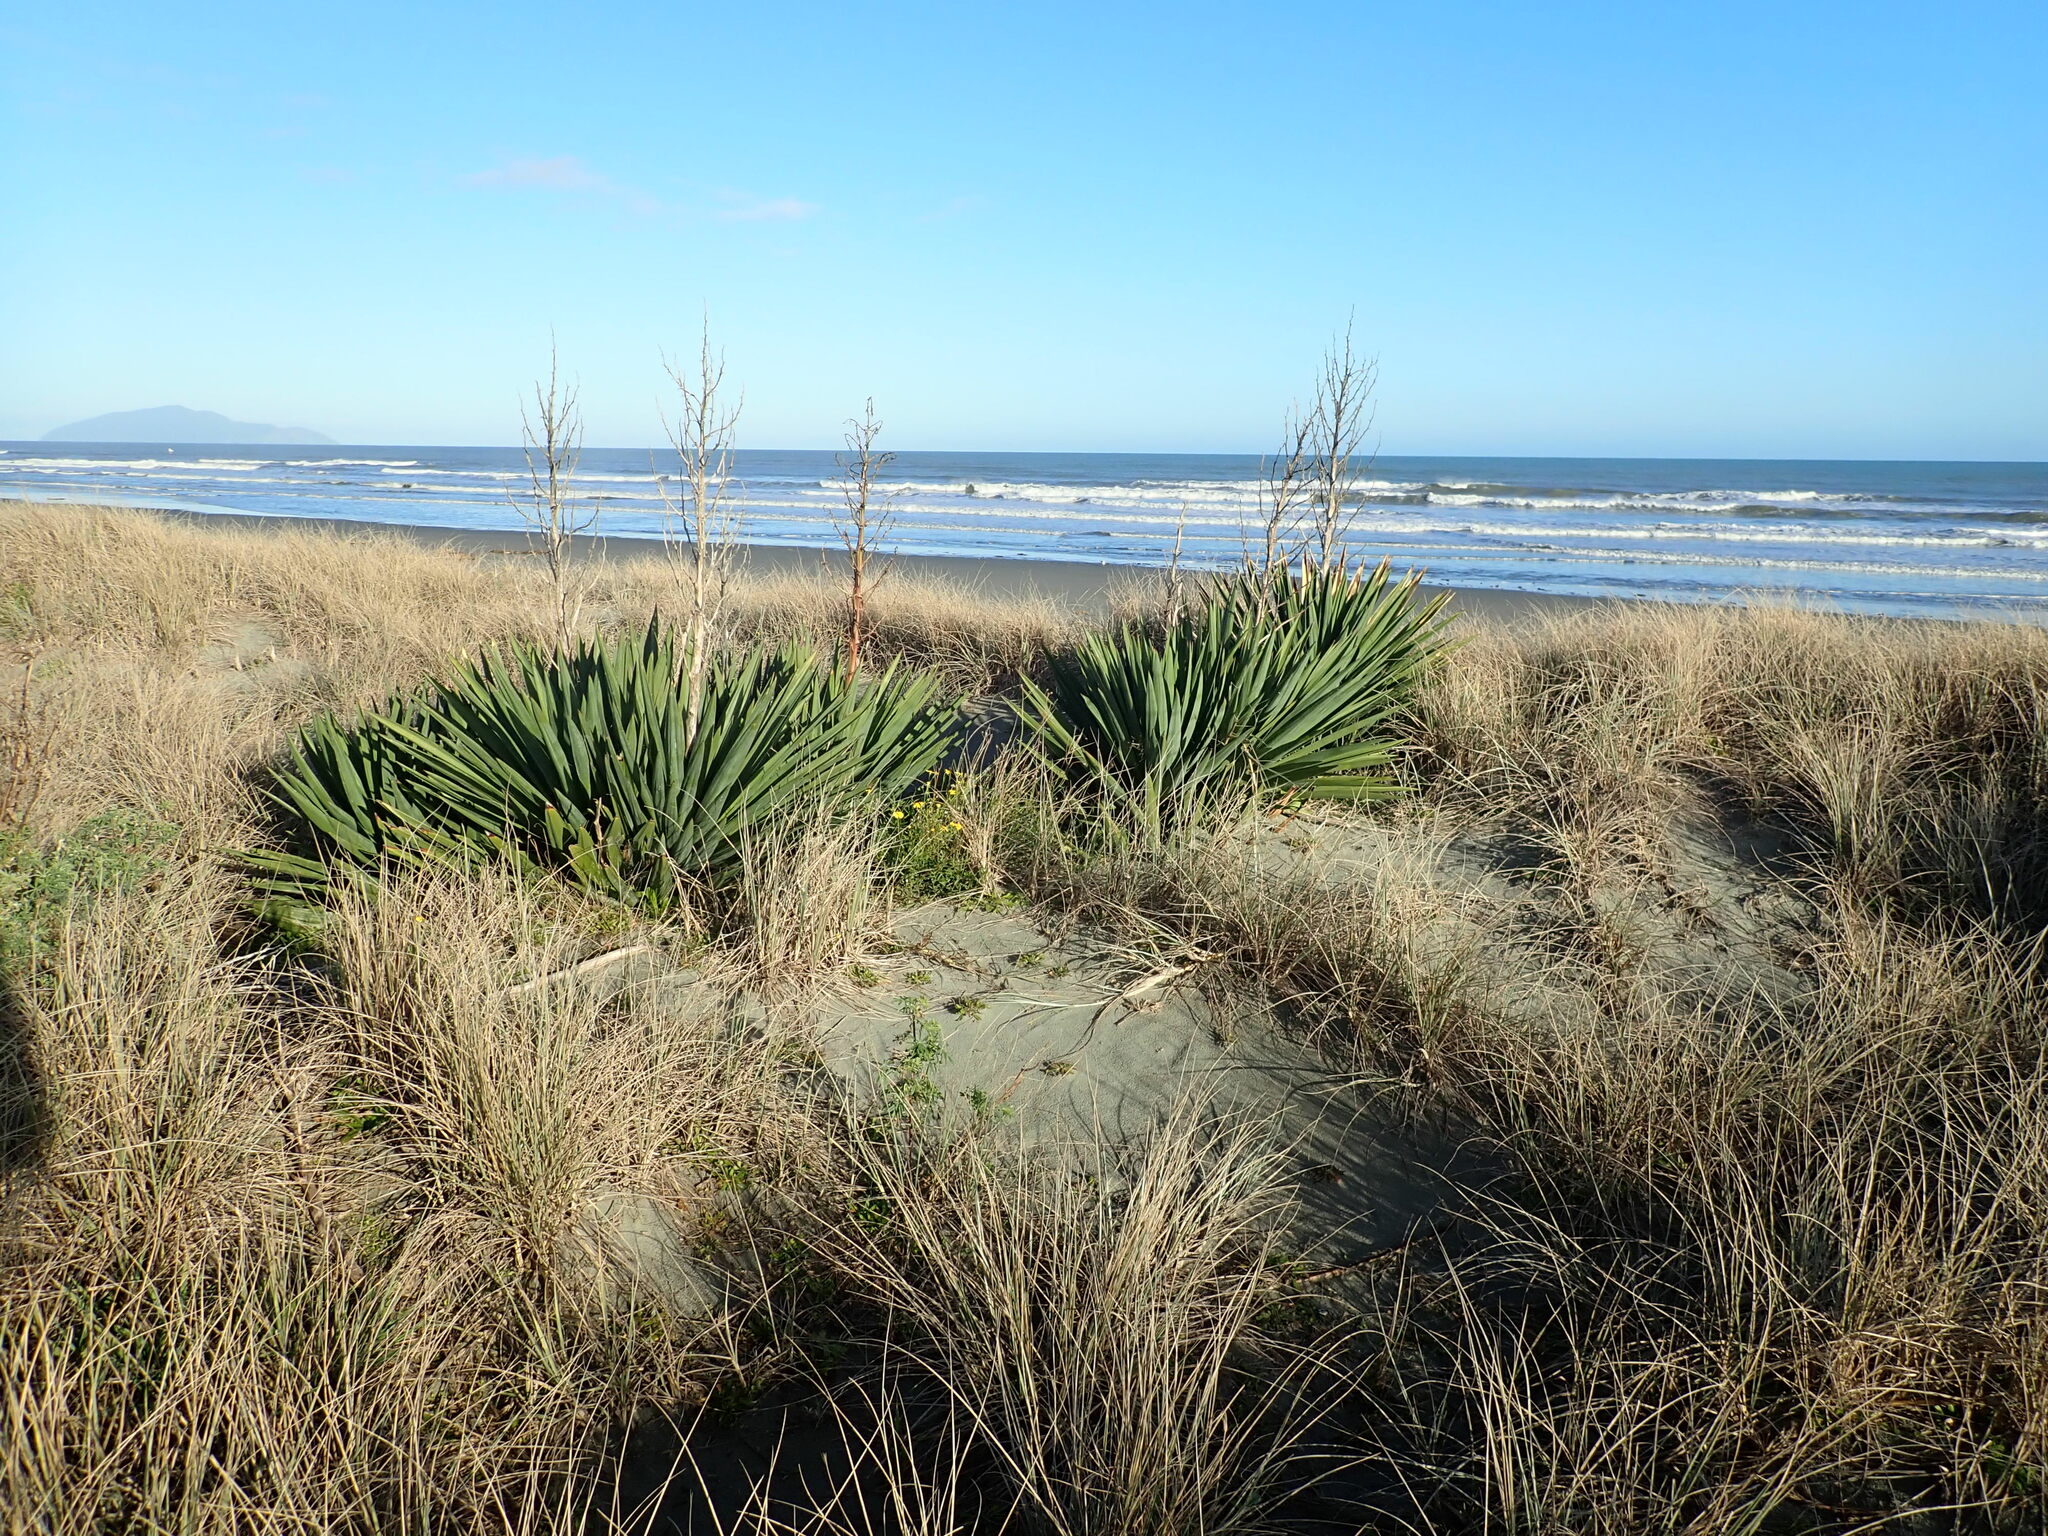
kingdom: Plantae
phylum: Tracheophyta
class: Liliopsida
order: Asparagales
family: Asparagaceae
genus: Yucca
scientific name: Yucca gloriosa
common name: Spanish-dagger
